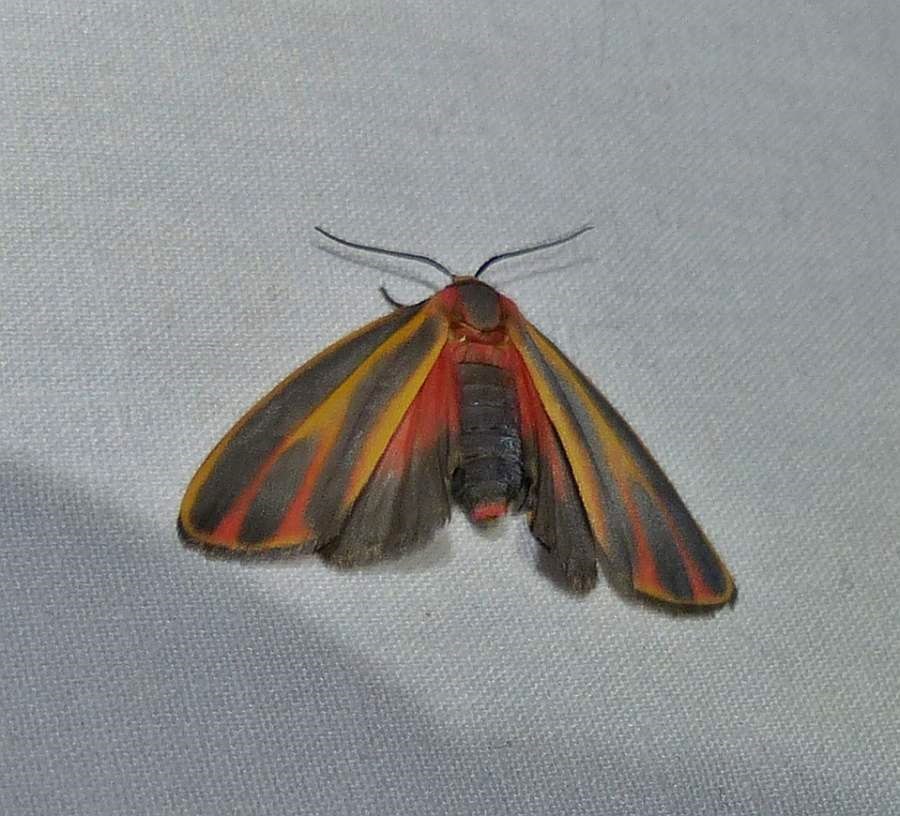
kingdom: Animalia
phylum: Arthropoda
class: Insecta
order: Lepidoptera
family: Erebidae
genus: Hypoprepia
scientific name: Hypoprepia fucosa
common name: Painted lichen moth
